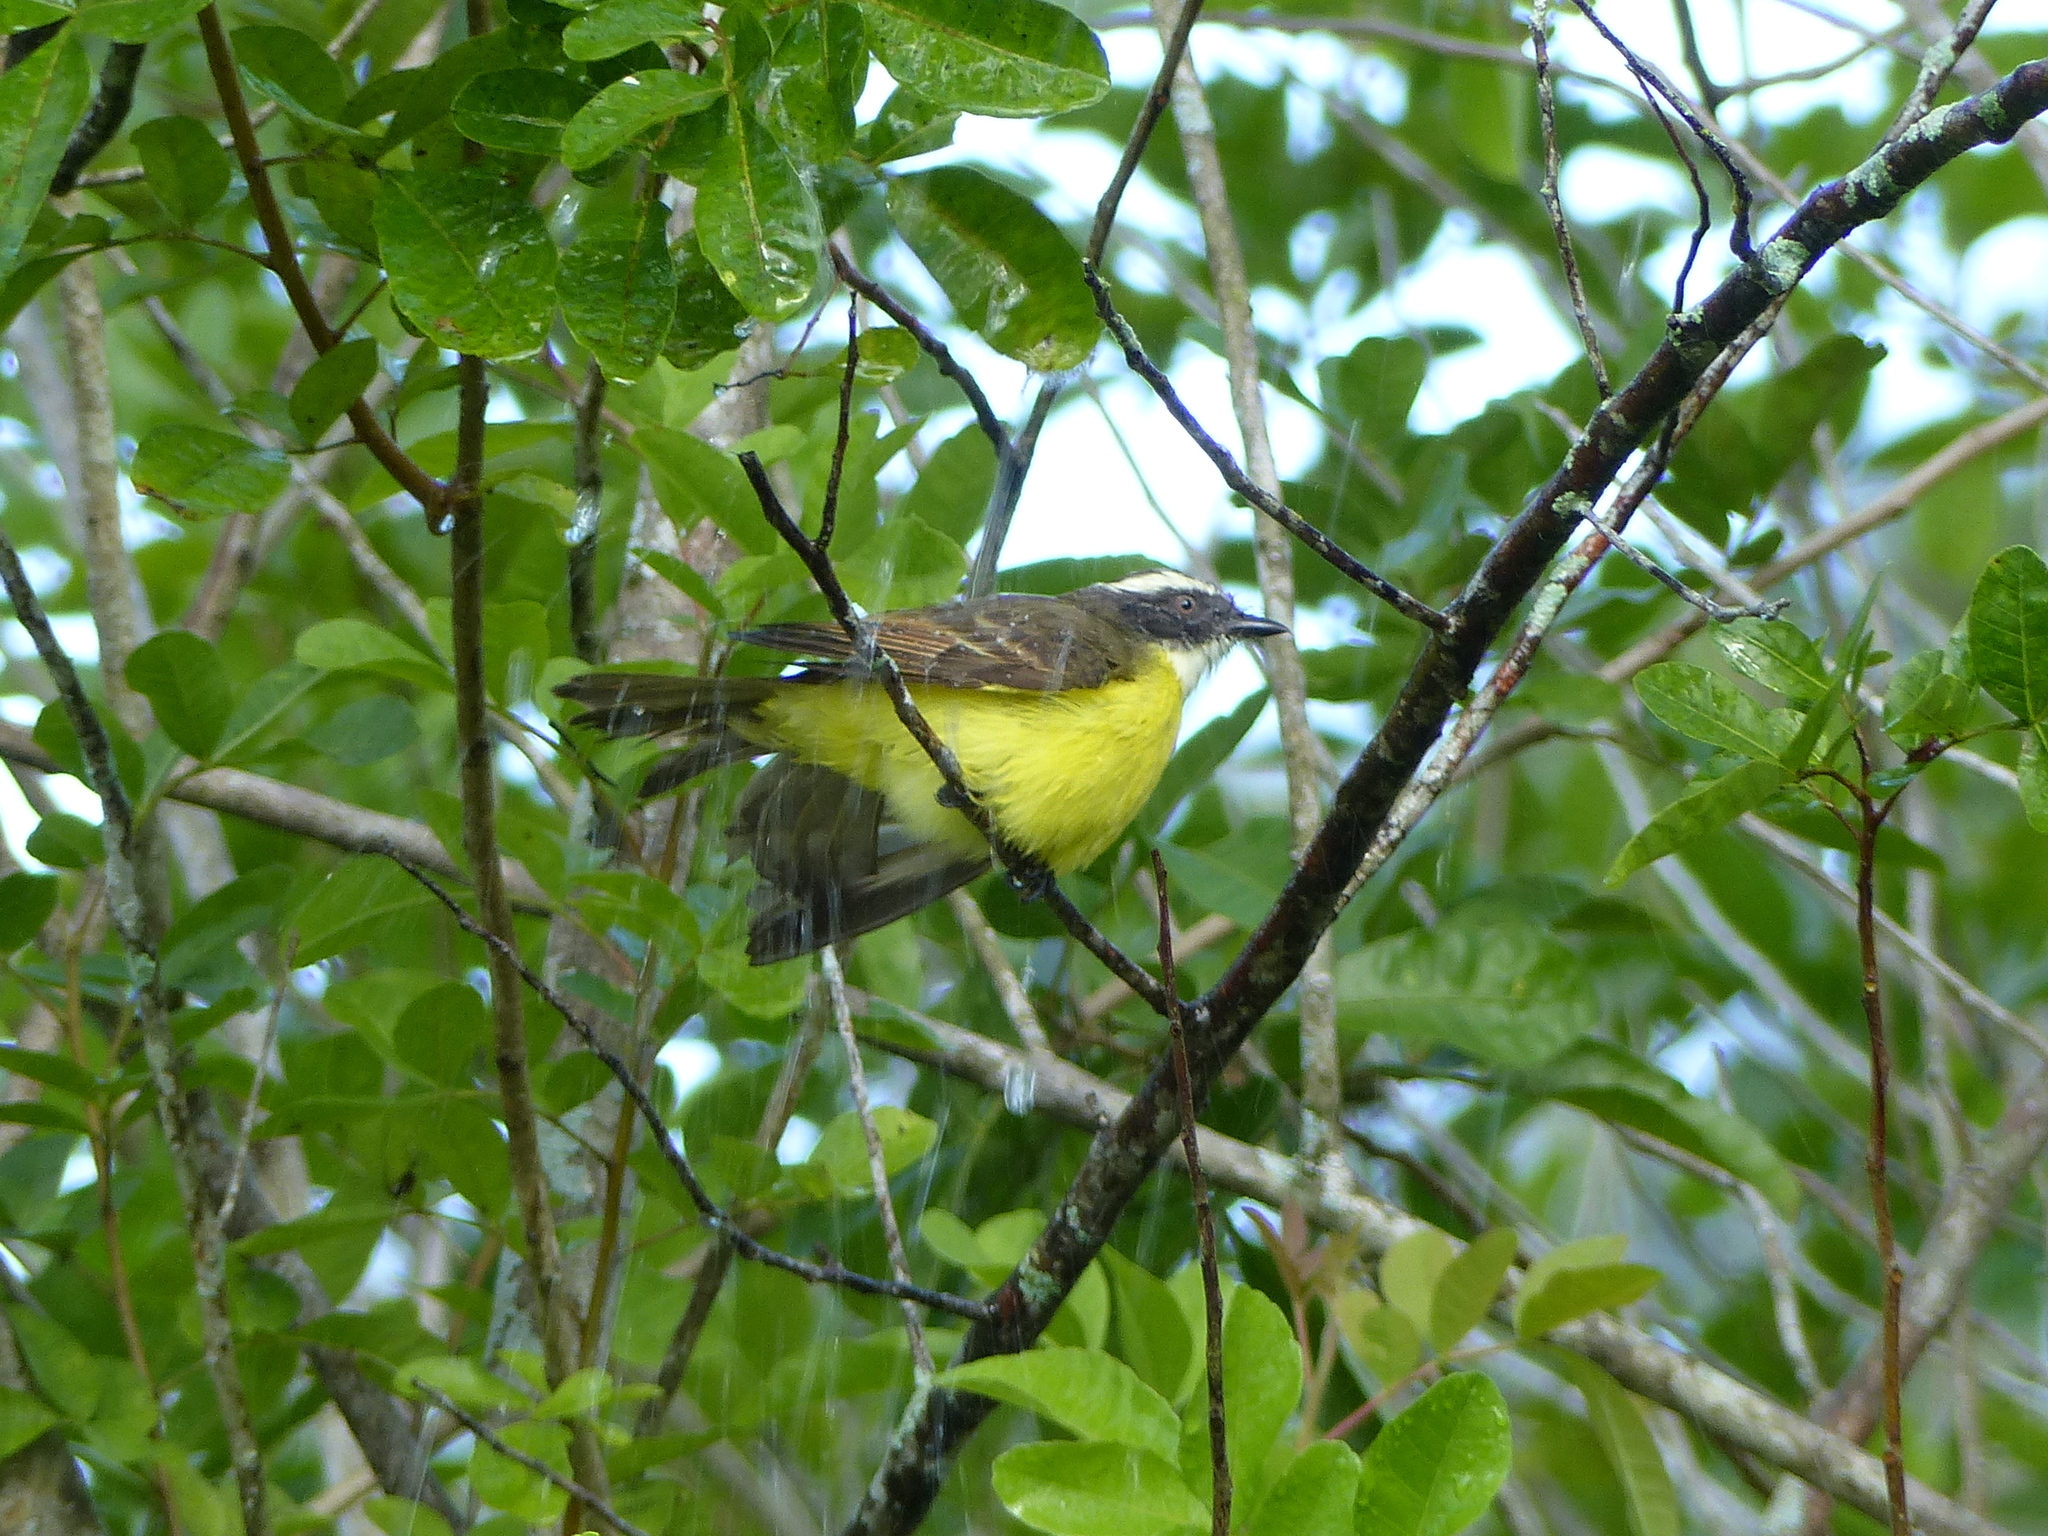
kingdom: Animalia
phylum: Chordata
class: Aves
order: Passeriformes
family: Tyrannidae
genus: Myiozetetes
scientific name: Myiozetetes similis
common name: Social flycatcher
